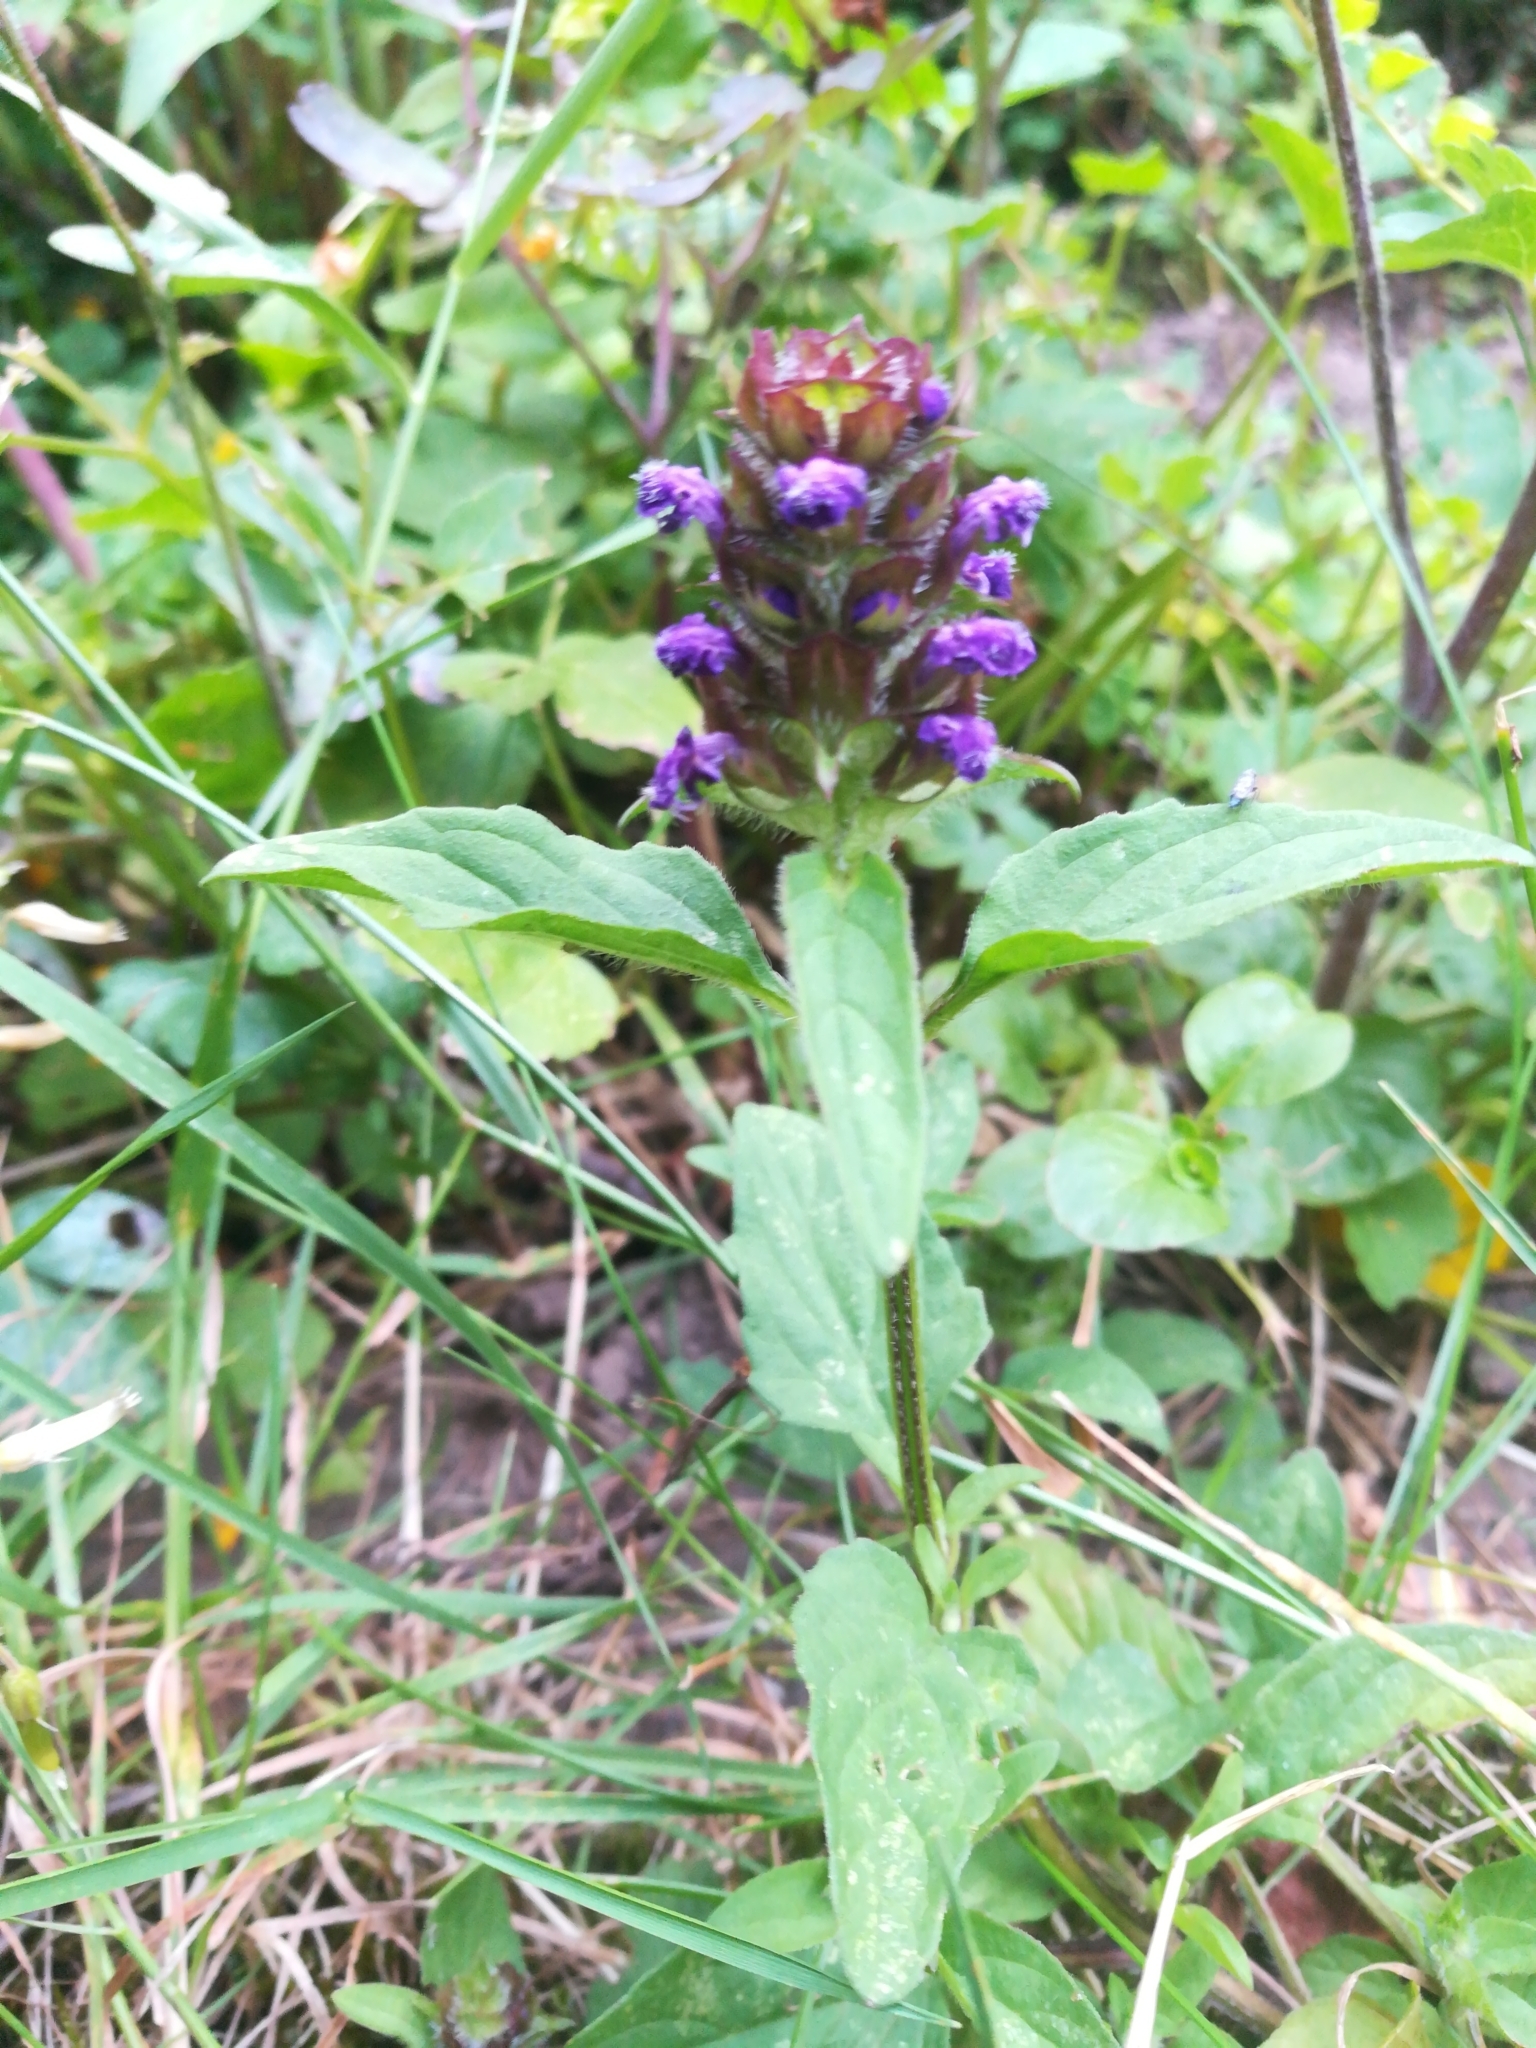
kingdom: Plantae
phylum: Tracheophyta
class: Magnoliopsida
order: Lamiales
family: Lamiaceae
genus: Prunella
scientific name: Prunella vulgaris
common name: Heal-all
